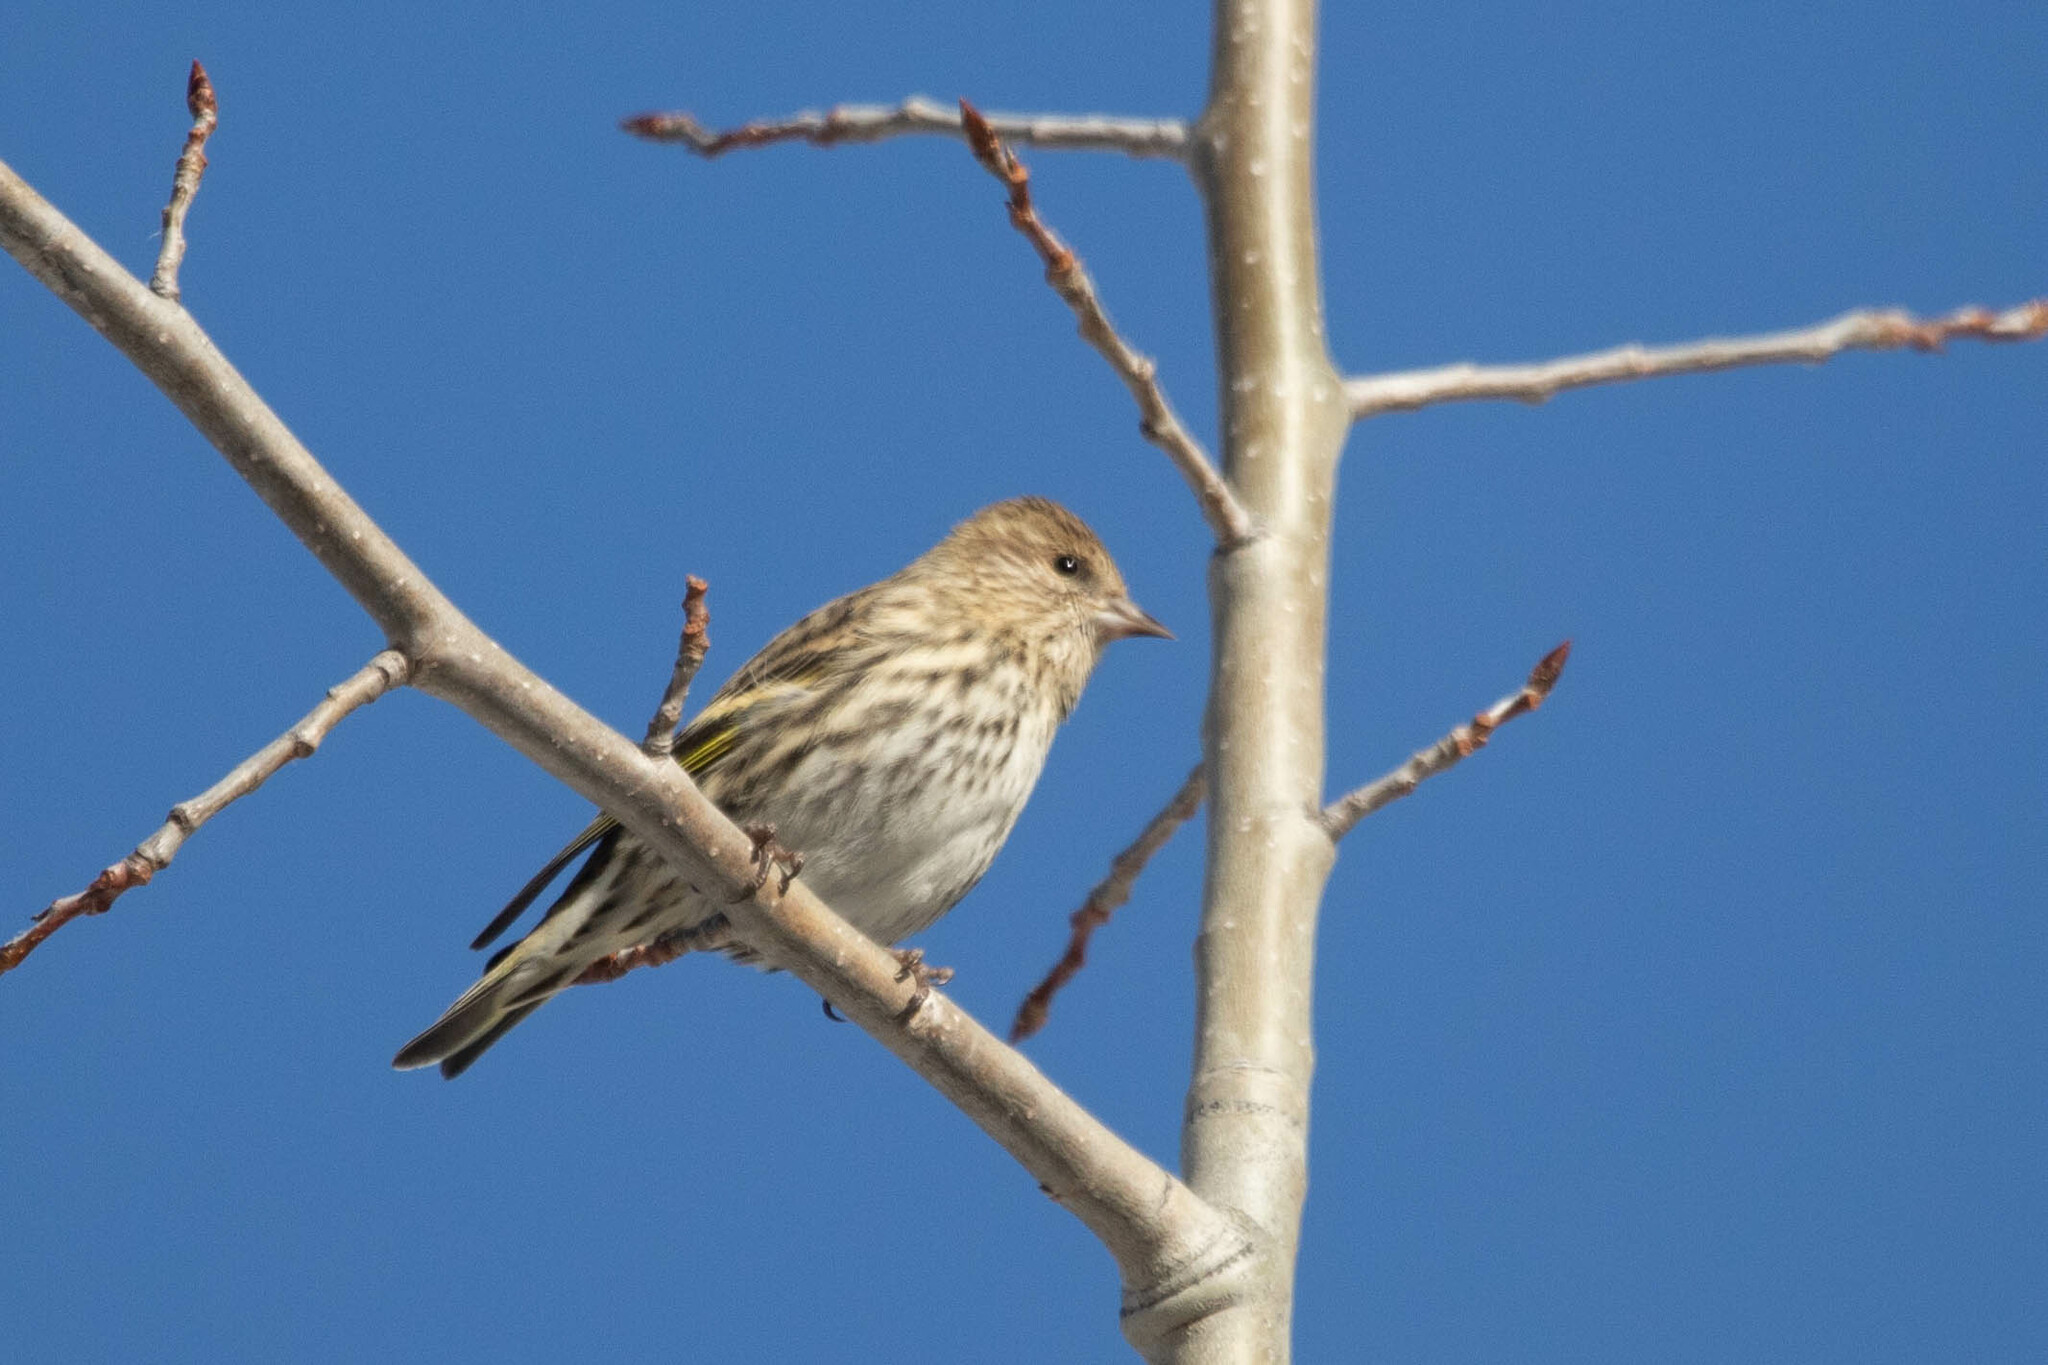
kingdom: Animalia
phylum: Chordata
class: Aves
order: Passeriformes
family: Fringillidae
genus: Spinus
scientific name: Spinus pinus
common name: Pine siskin
